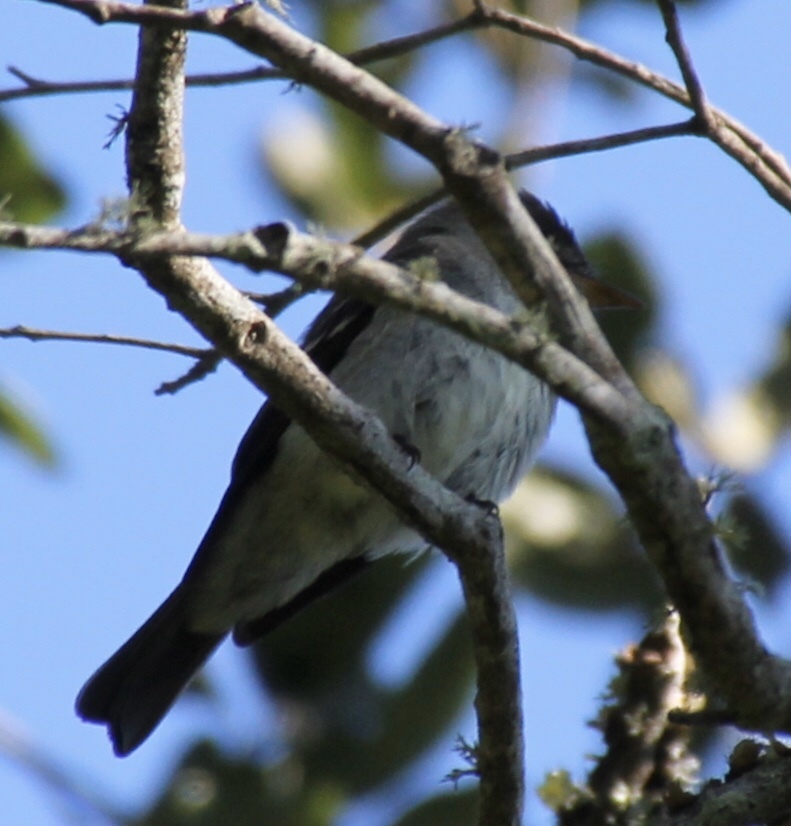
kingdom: Animalia
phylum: Chordata
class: Aves
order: Passeriformes
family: Tyrannidae
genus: Contopus
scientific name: Contopus virens
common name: Eastern wood-pewee
